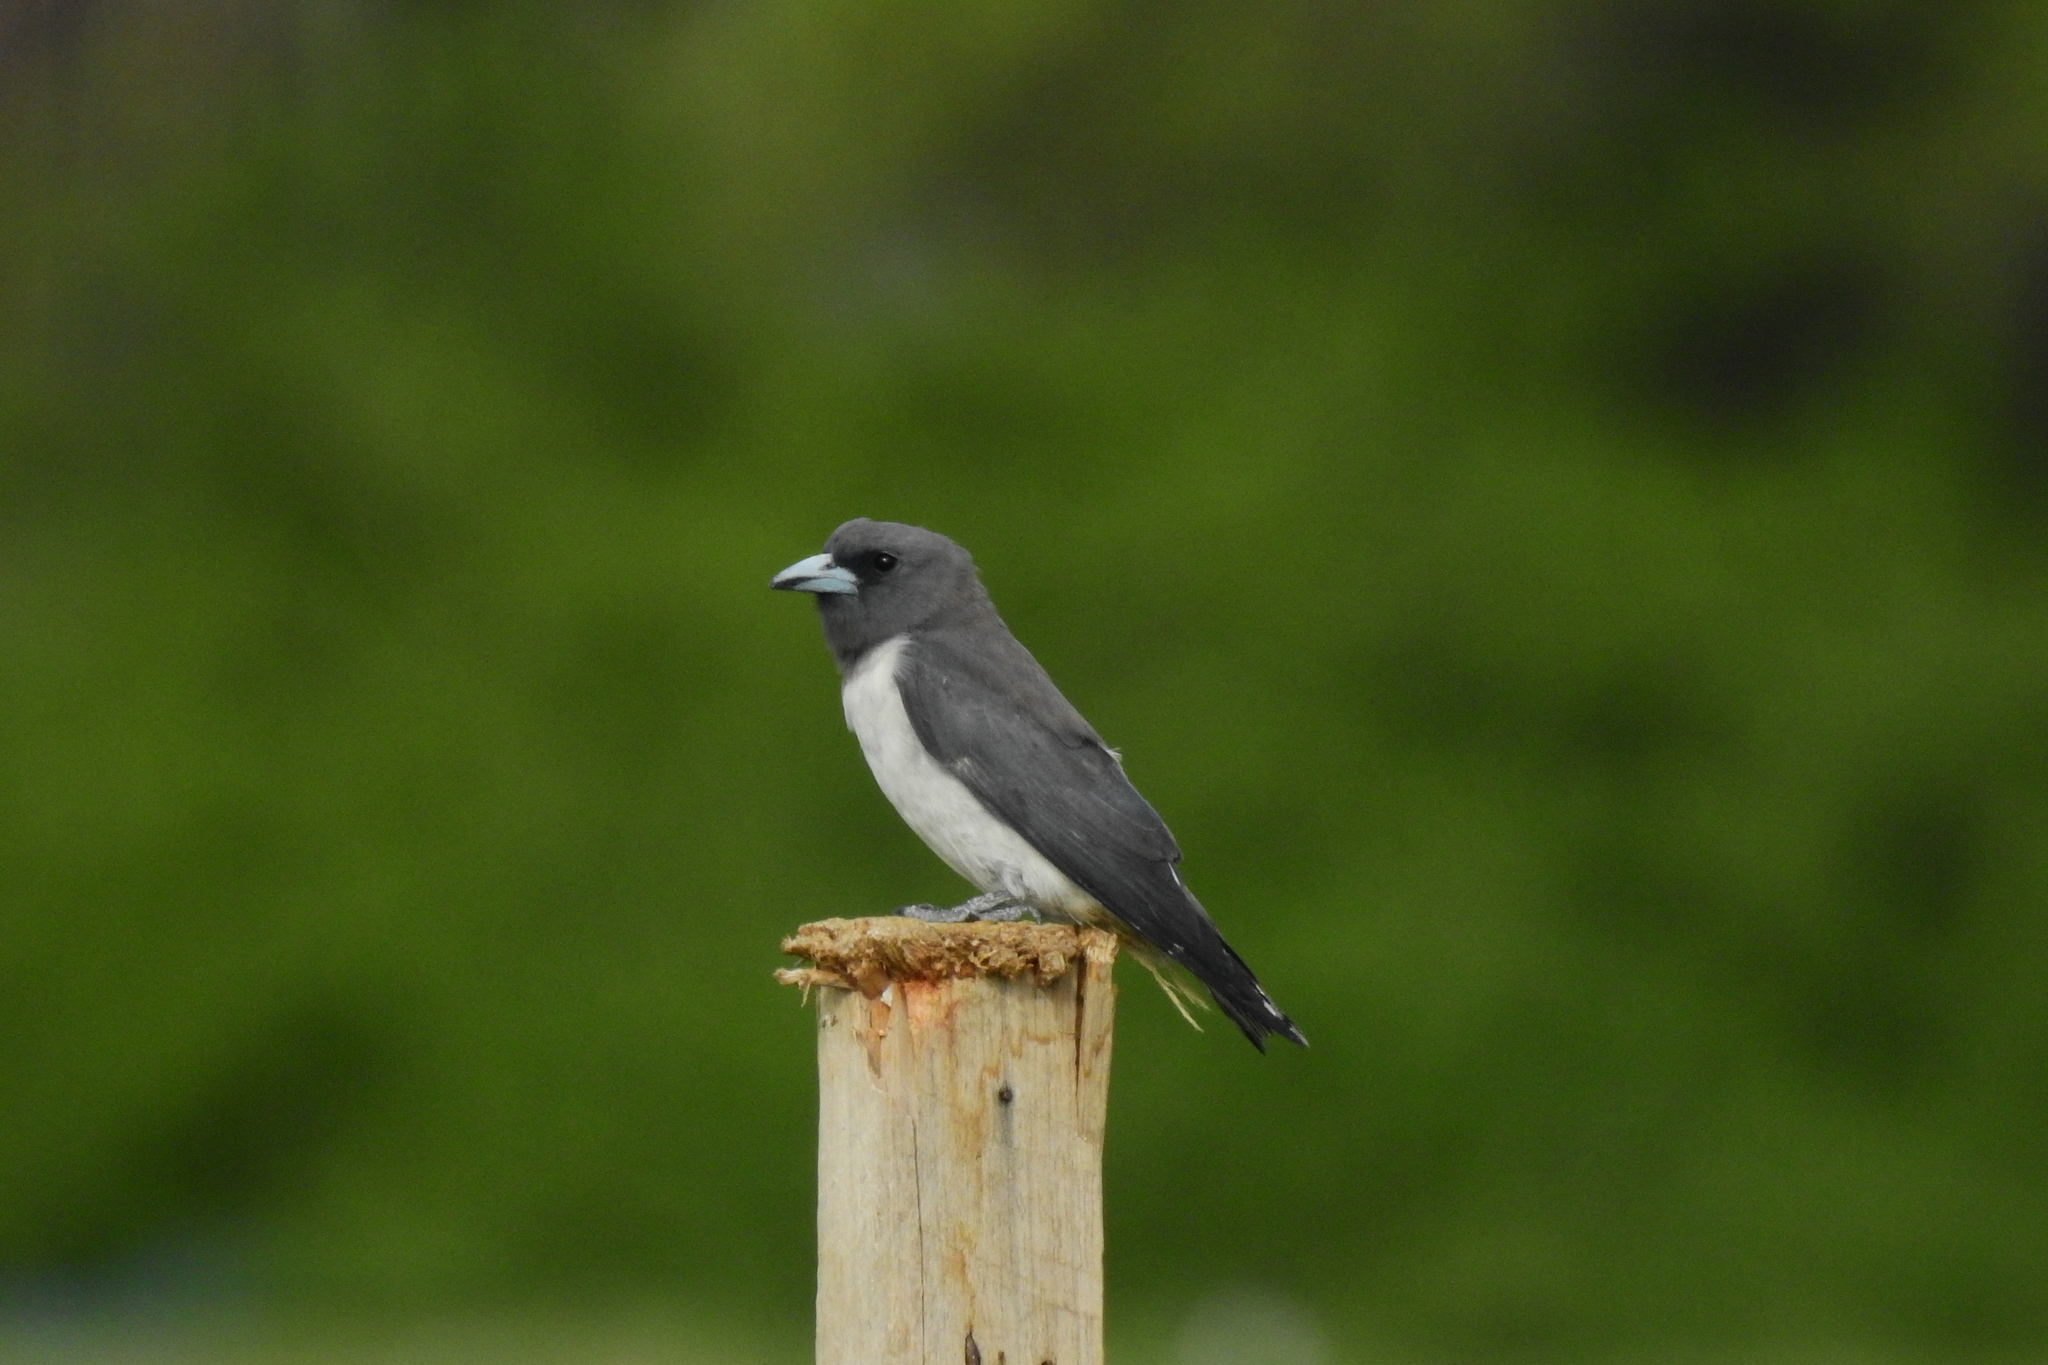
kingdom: Animalia
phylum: Chordata
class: Aves
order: Passeriformes
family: Artamidae
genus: Artamus
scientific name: Artamus leucoryn
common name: White-breasted woodswallow
